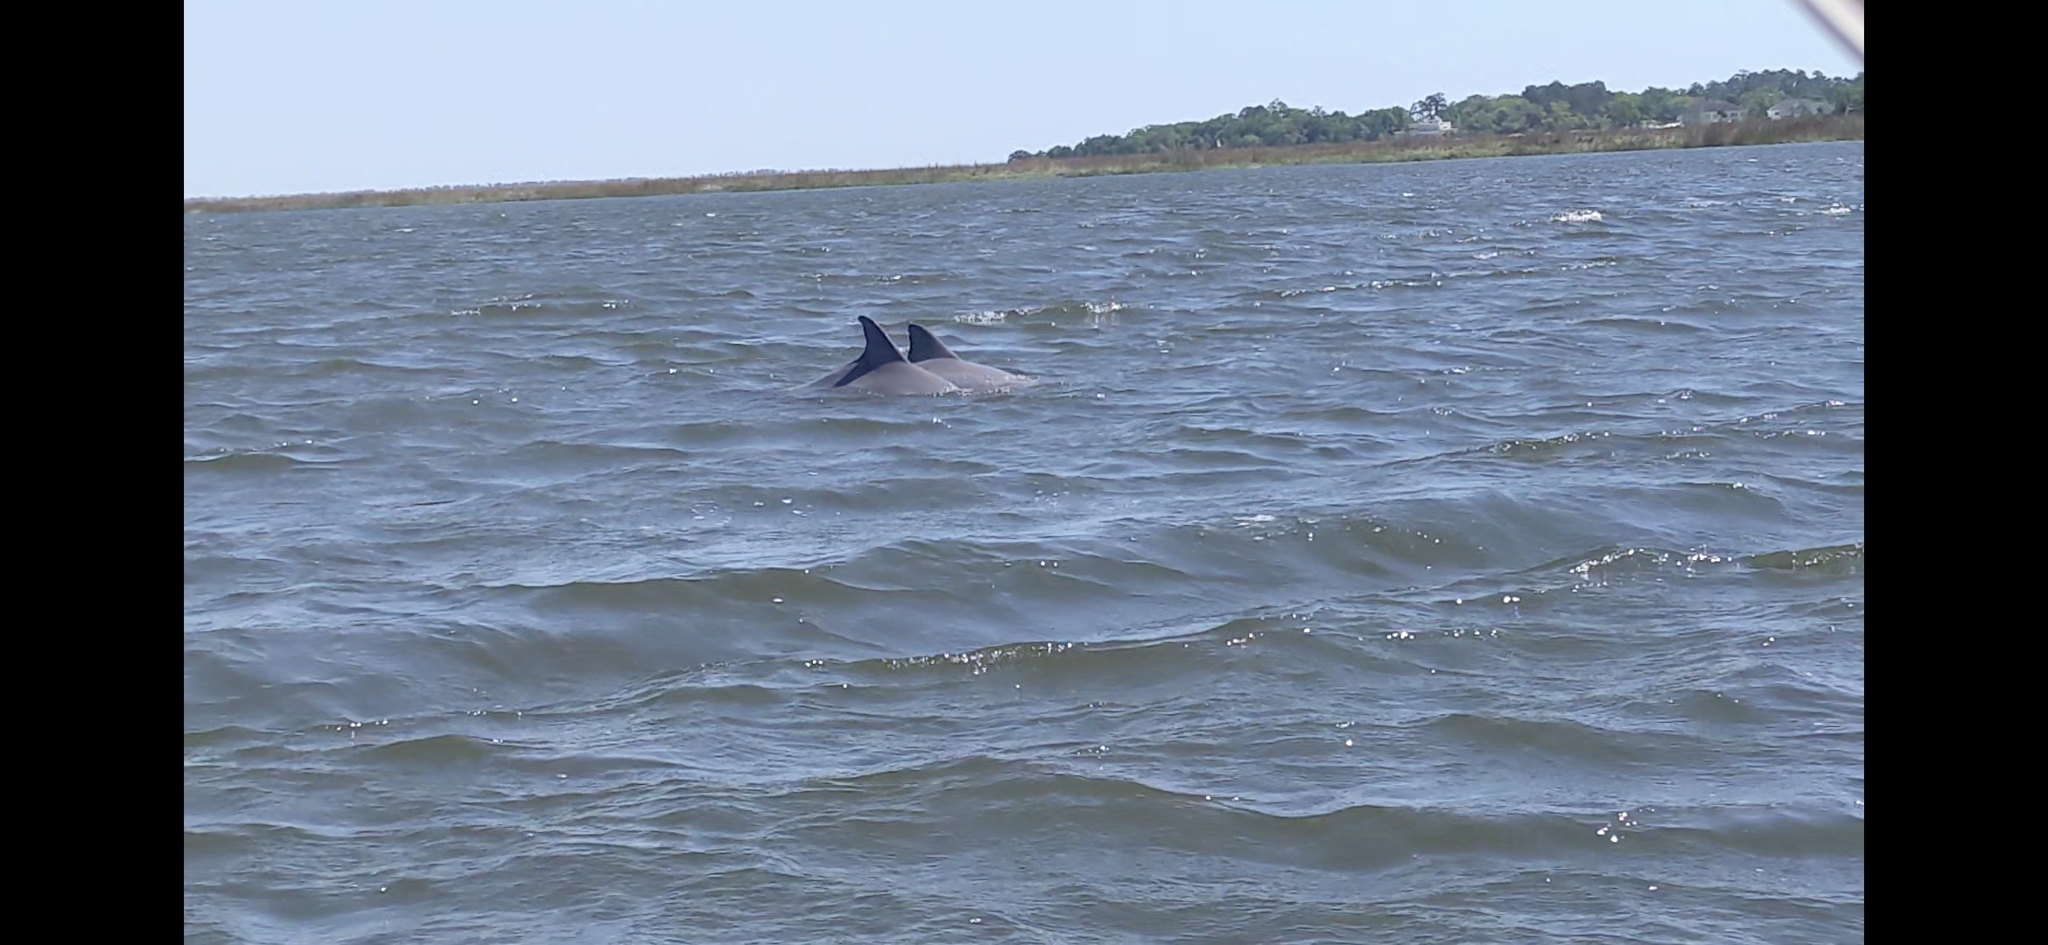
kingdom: Animalia
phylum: Chordata
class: Mammalia
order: Cetacea
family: Delphinidae
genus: Tursiops
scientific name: Tursiops truncatus
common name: Bottlenose dolphin
